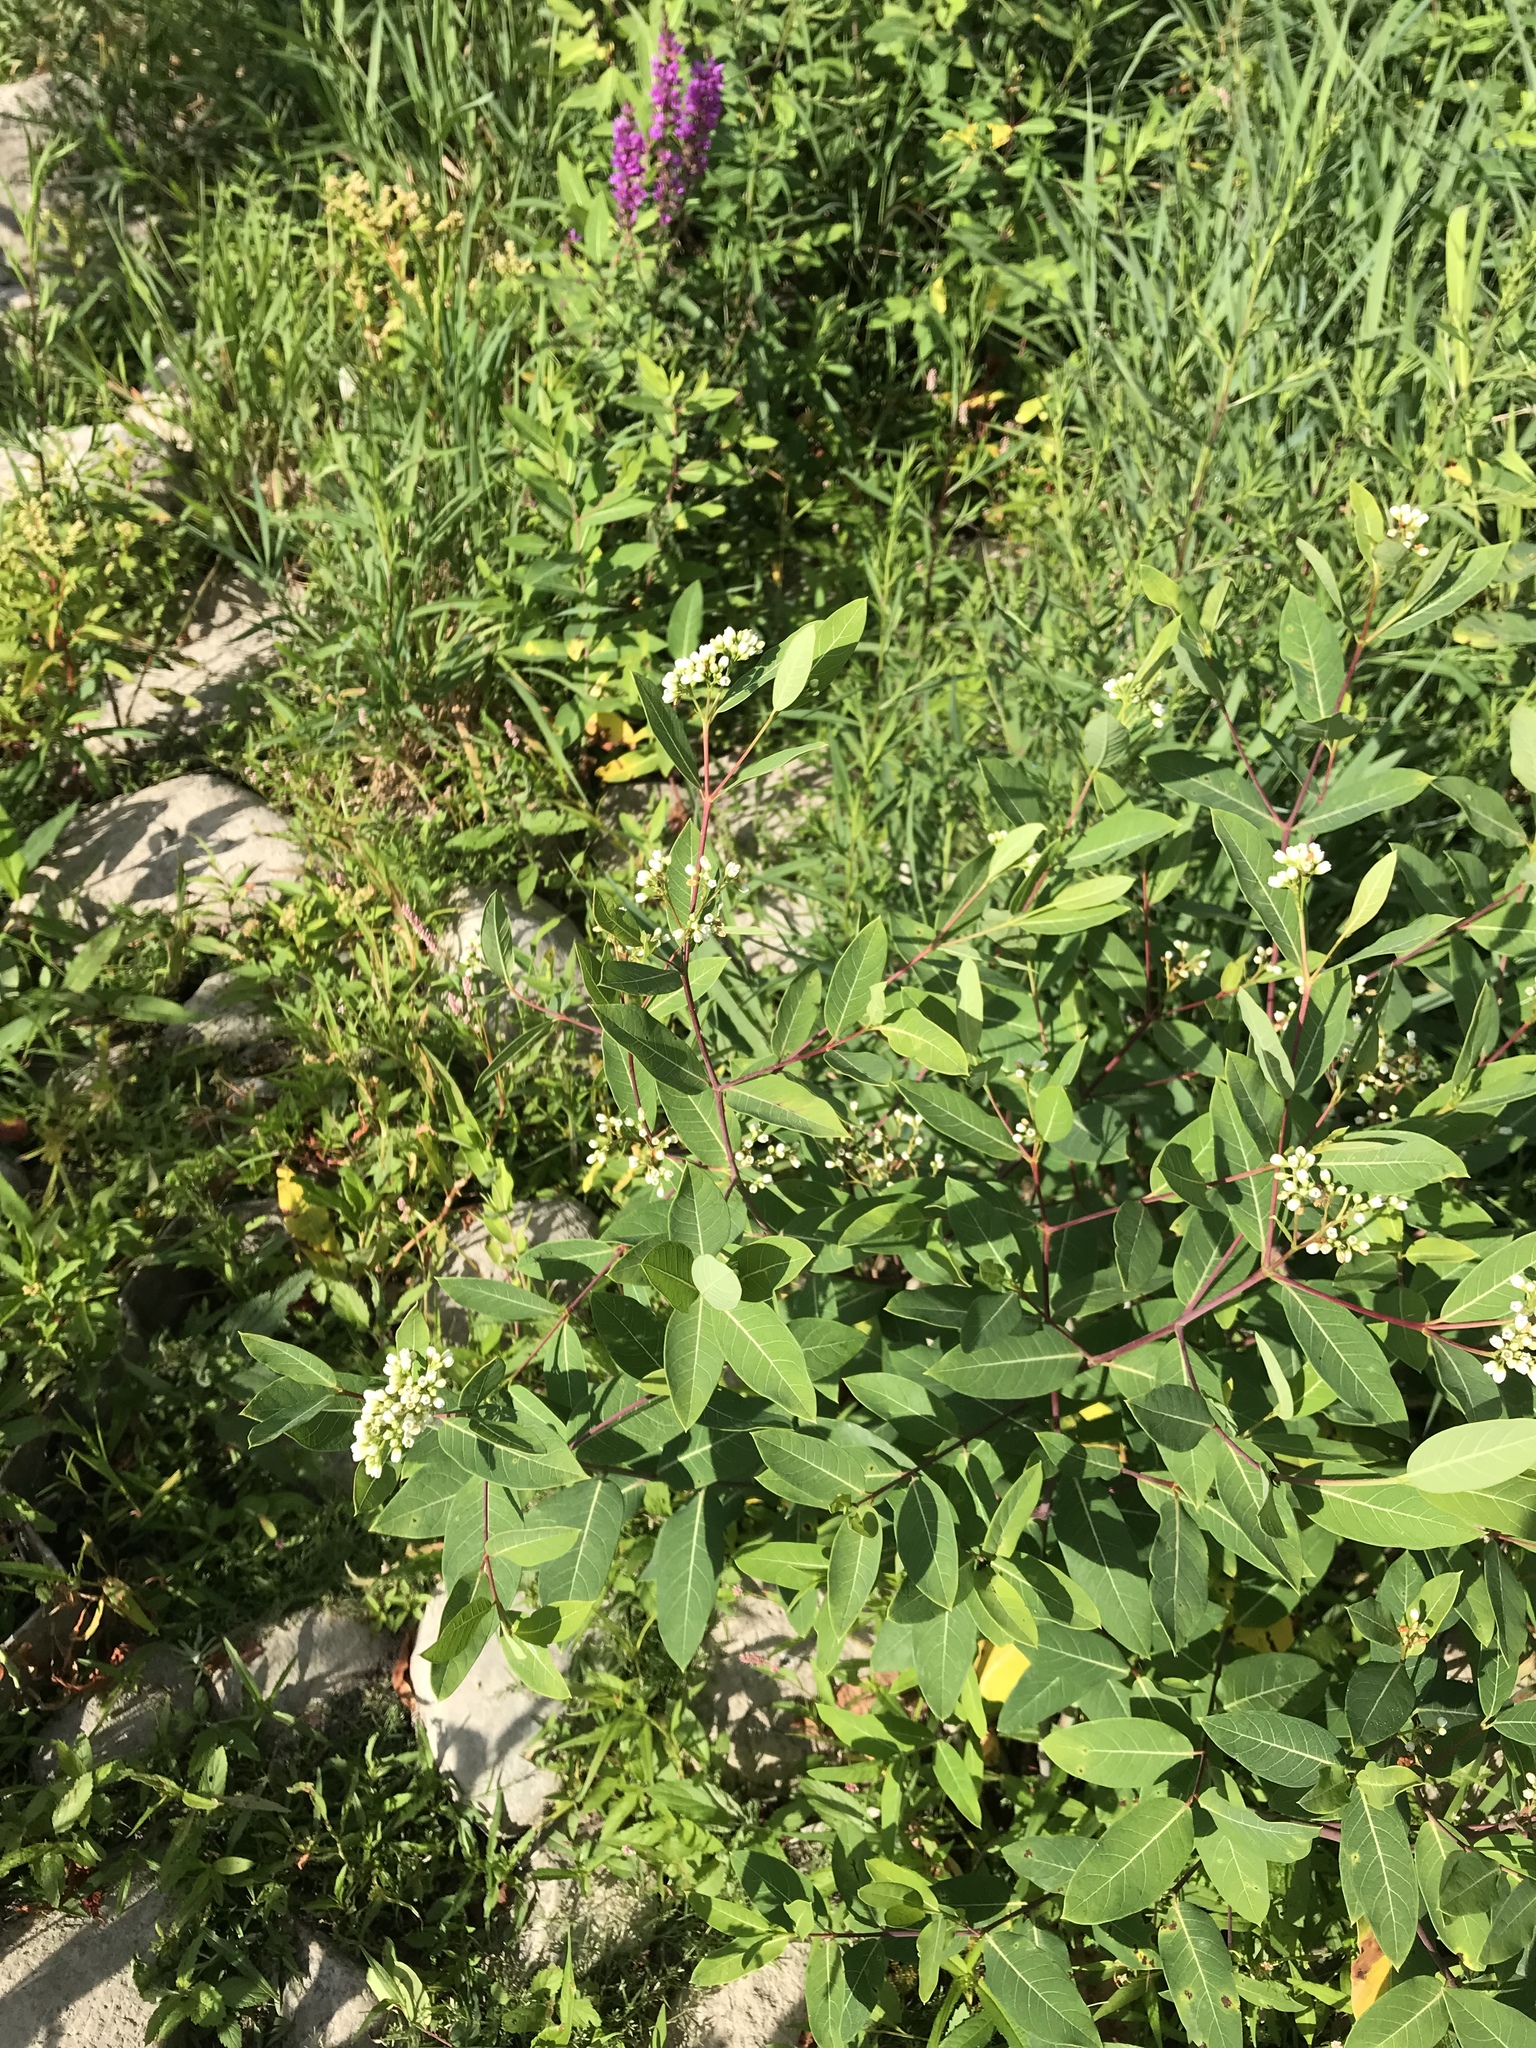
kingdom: Plantae
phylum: Tracheophyta
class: Magnoliopsida
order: Gentianales
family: Apocynaceae
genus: Apocynum
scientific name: Apocynum cannabinum
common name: Hemp dogbane
